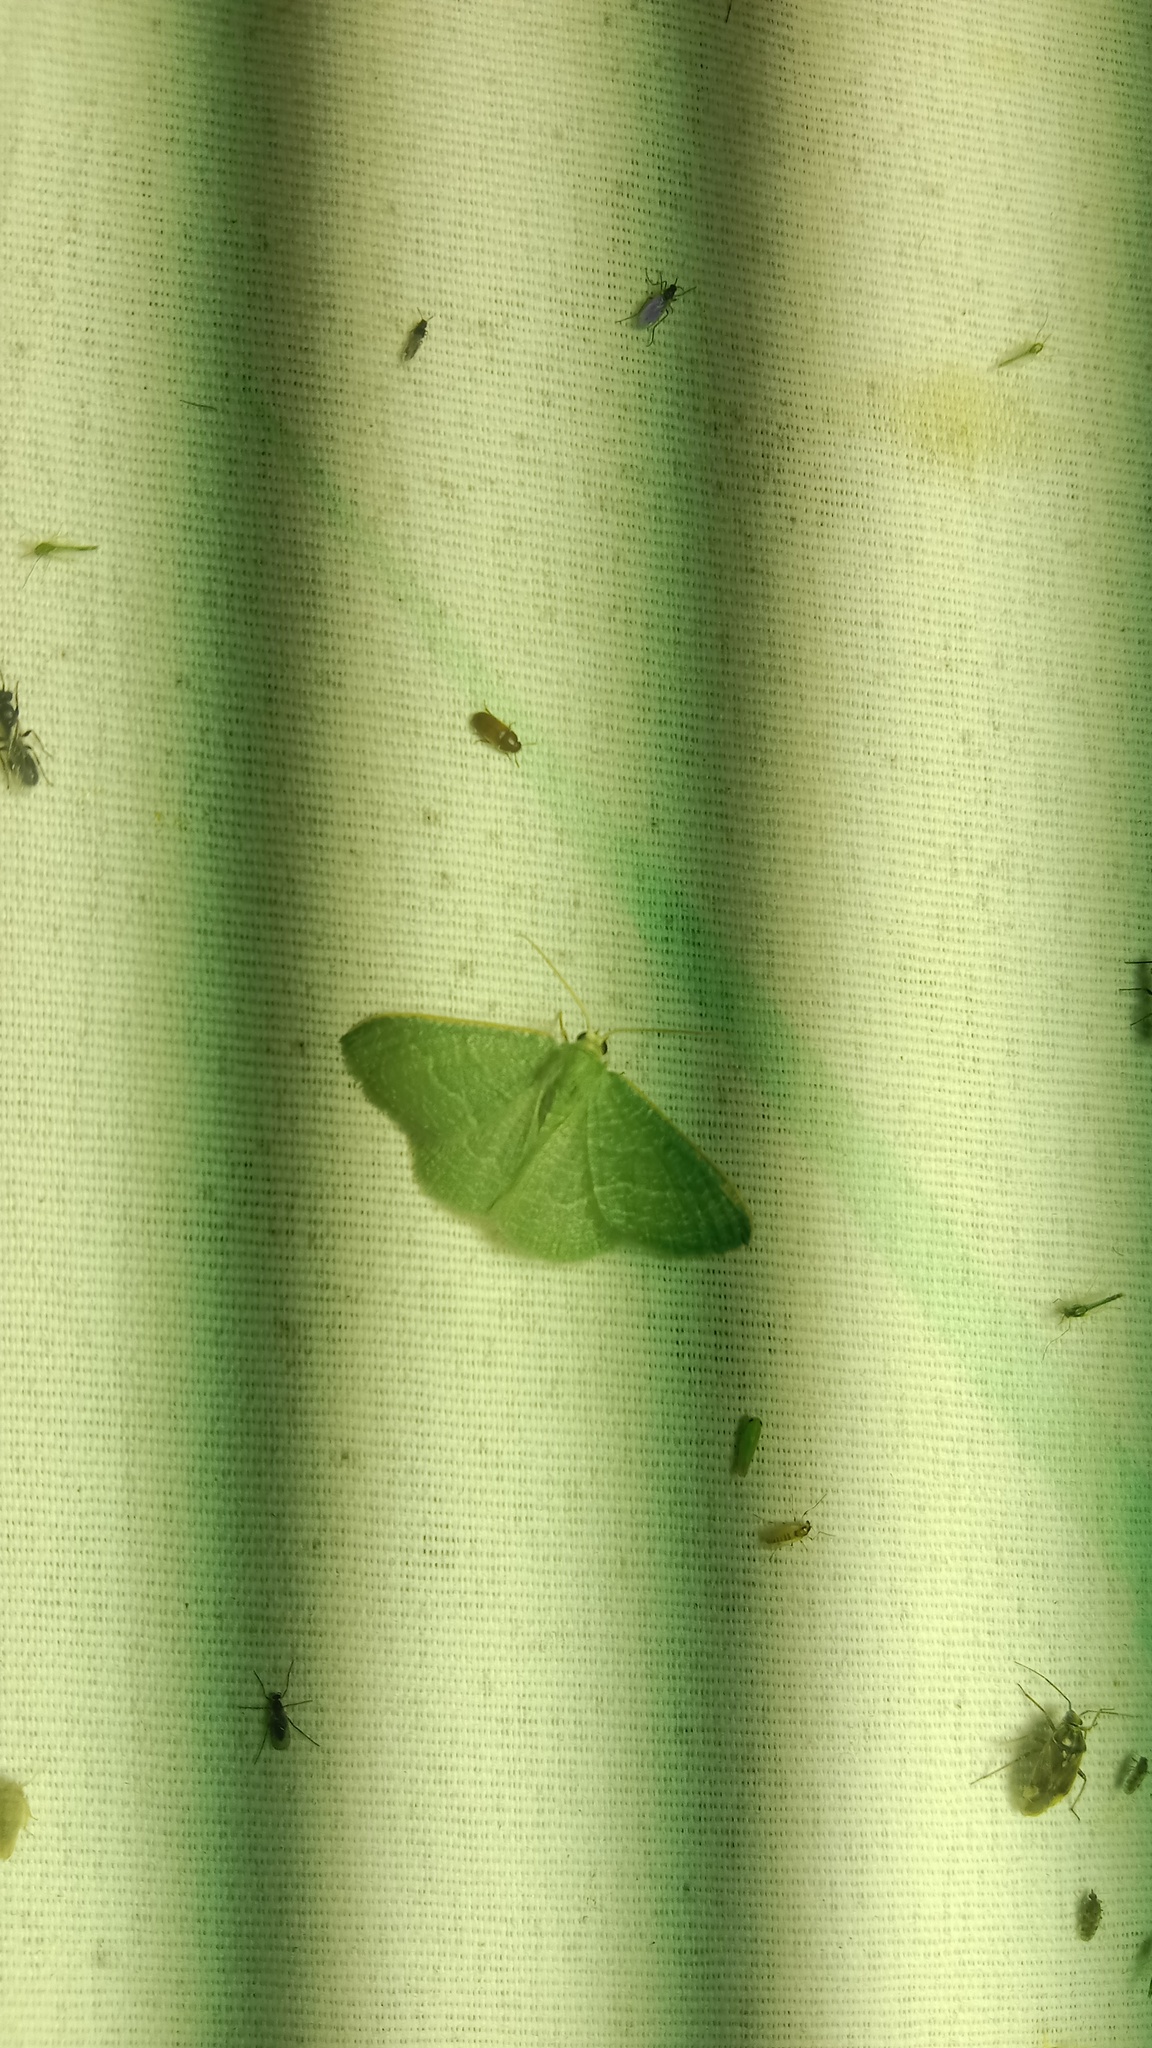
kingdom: Animalia
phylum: Arthropoda
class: Insecta
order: Lepidoptera
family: Geometridae
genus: Chlorissa
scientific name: Chlorissa etruscaria
